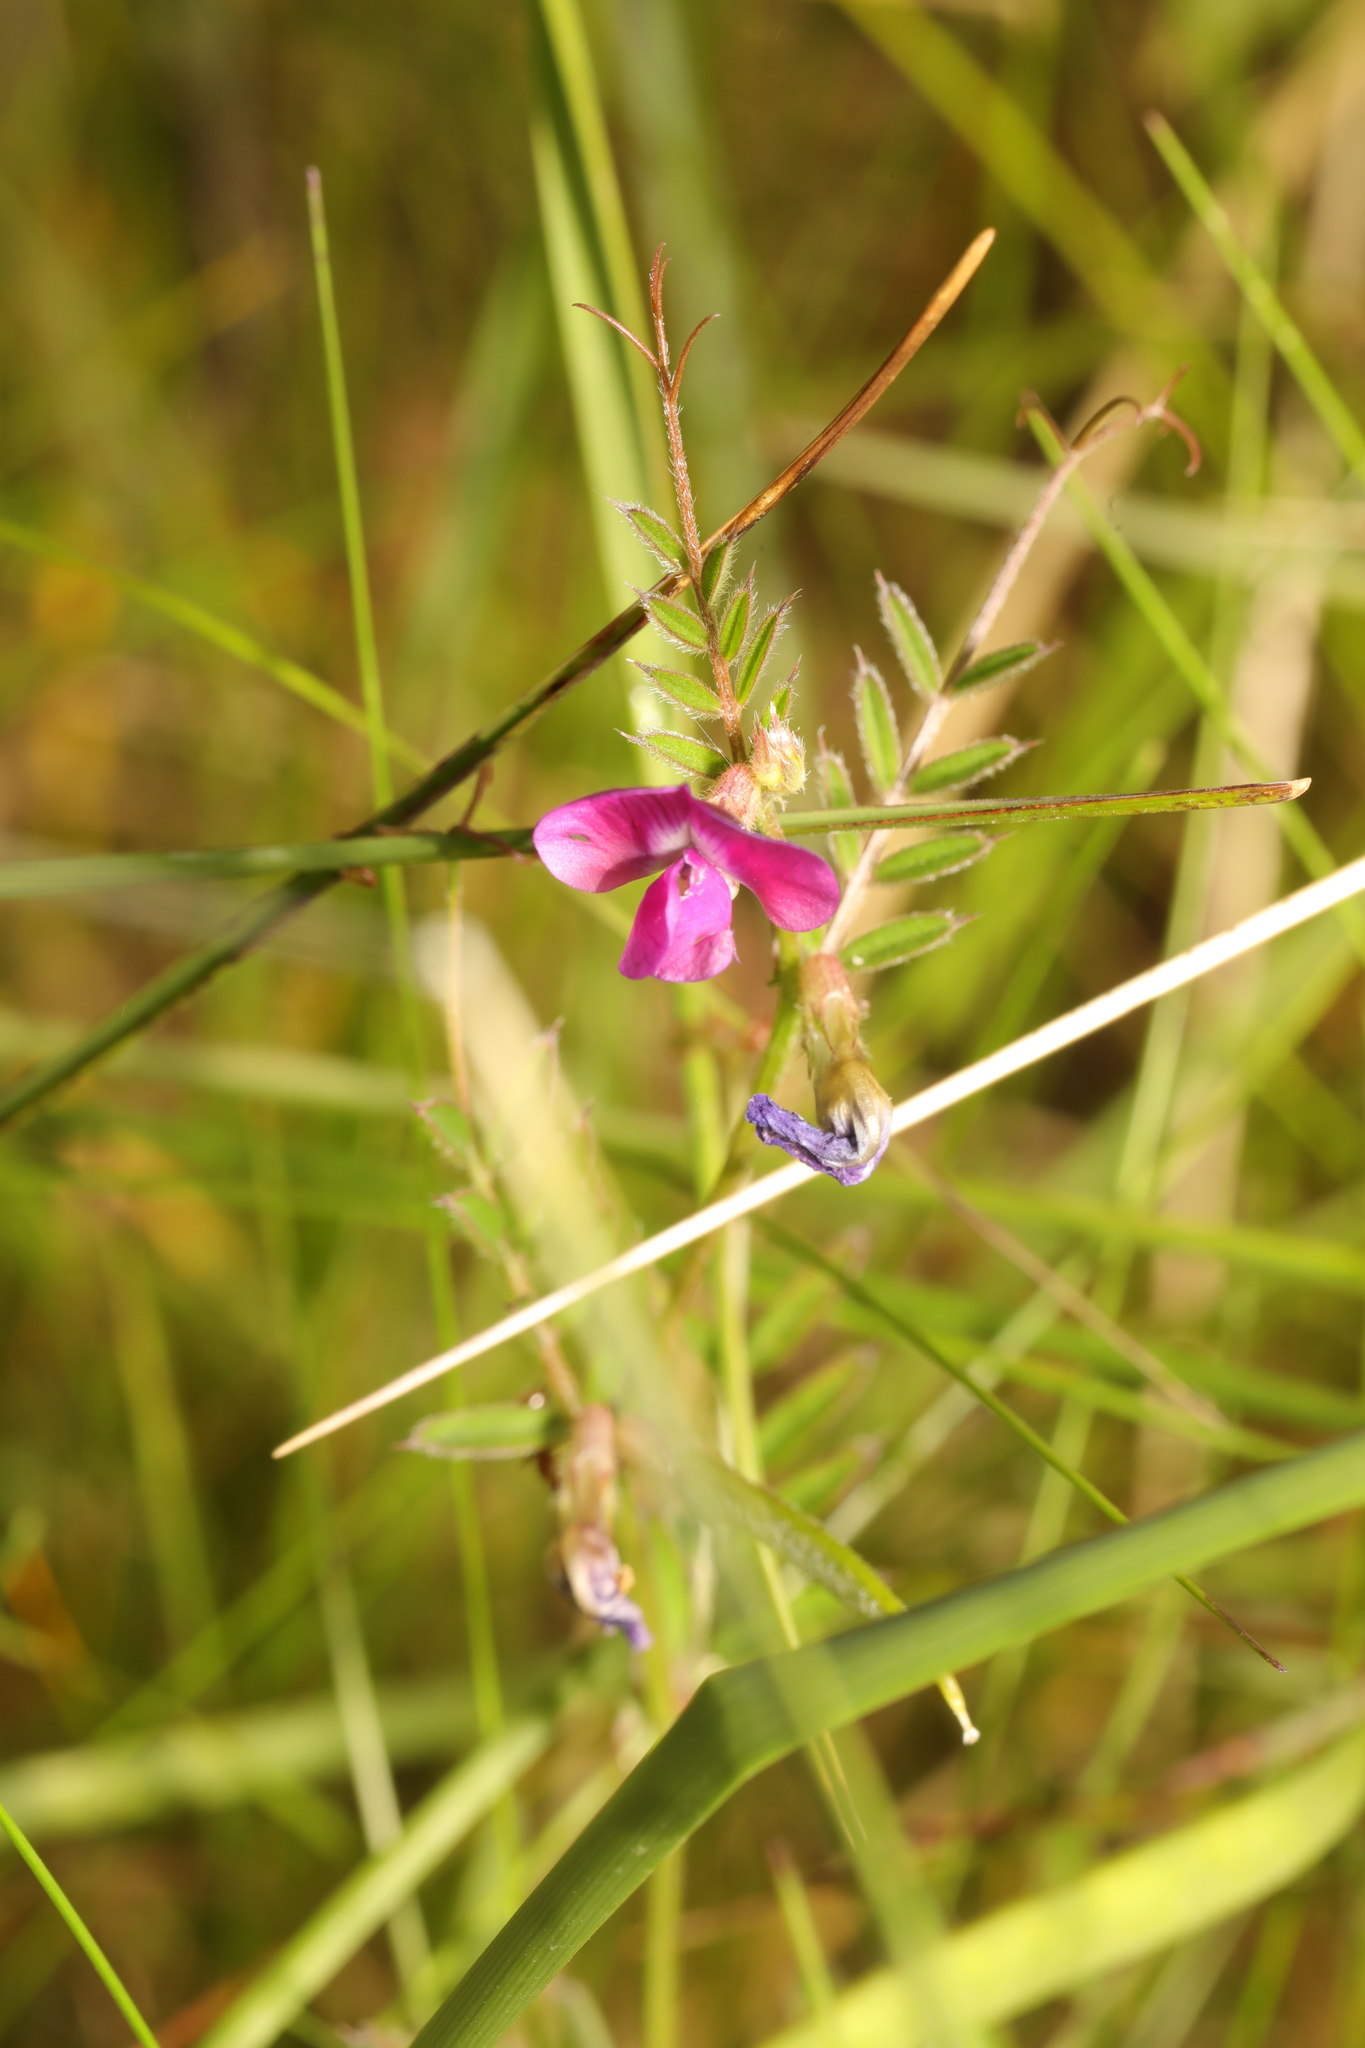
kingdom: Plantae
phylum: Tracheophyta
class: Magnoliopsida
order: Fabales
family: Fabaceae
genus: Vicia
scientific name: Vicia sativa
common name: Garden vetch
